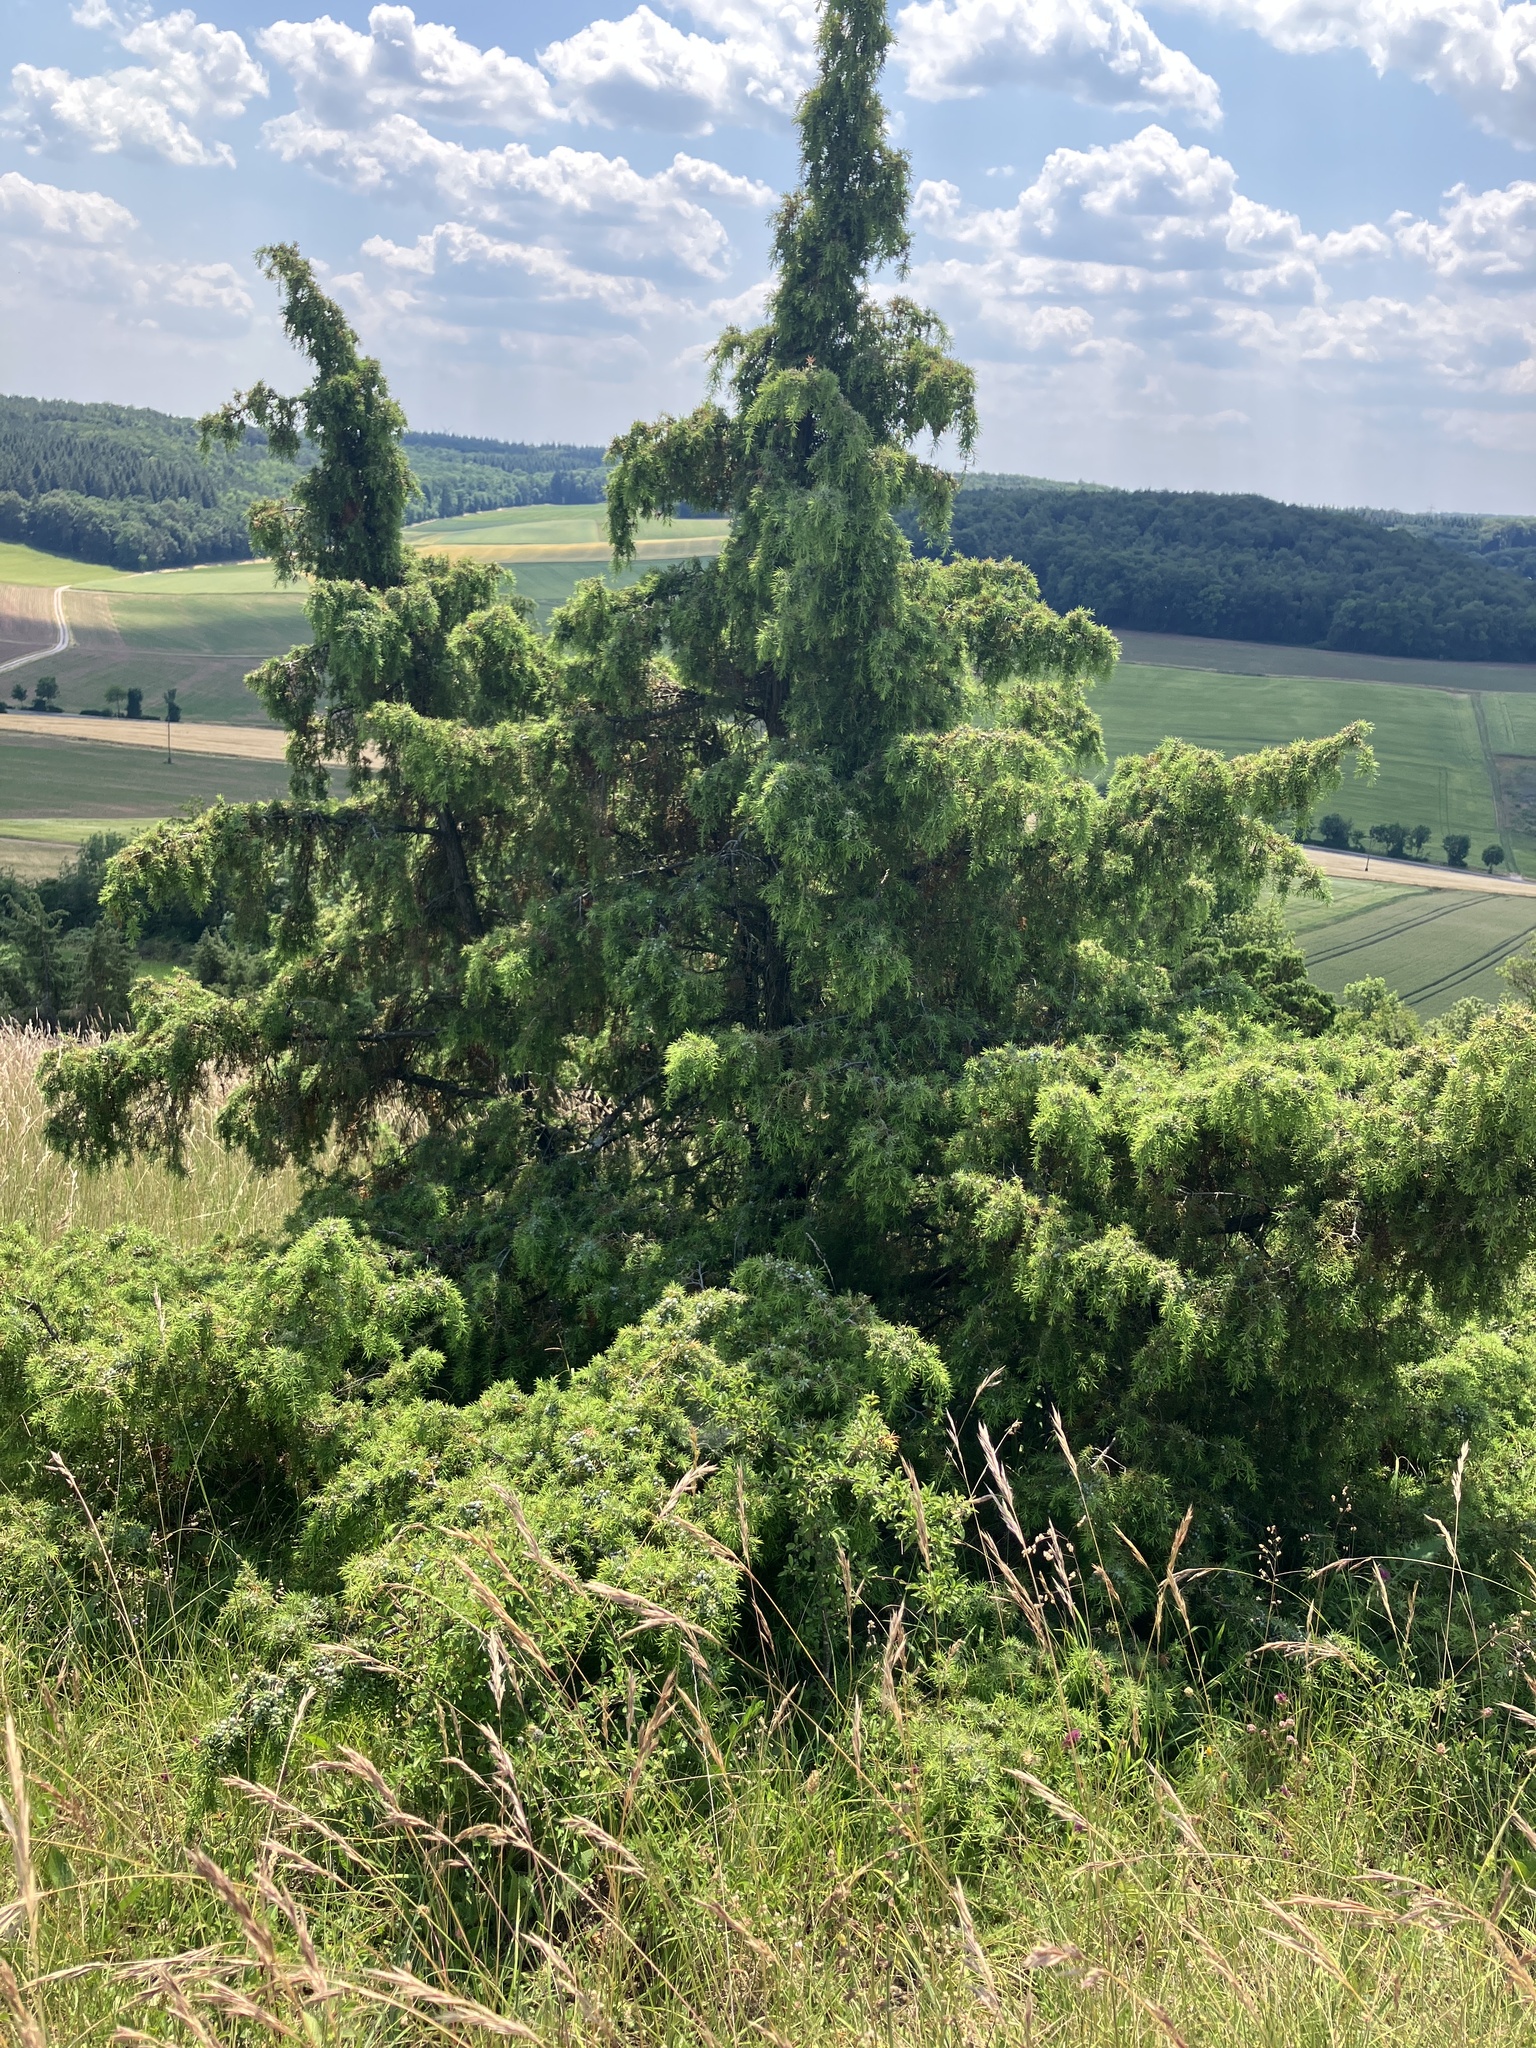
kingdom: Plantae
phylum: Tracheophyta
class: Pinopsida
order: Pinales
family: Cupressaceae
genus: Juniperus
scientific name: Juniperus communis
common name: Common juniper
